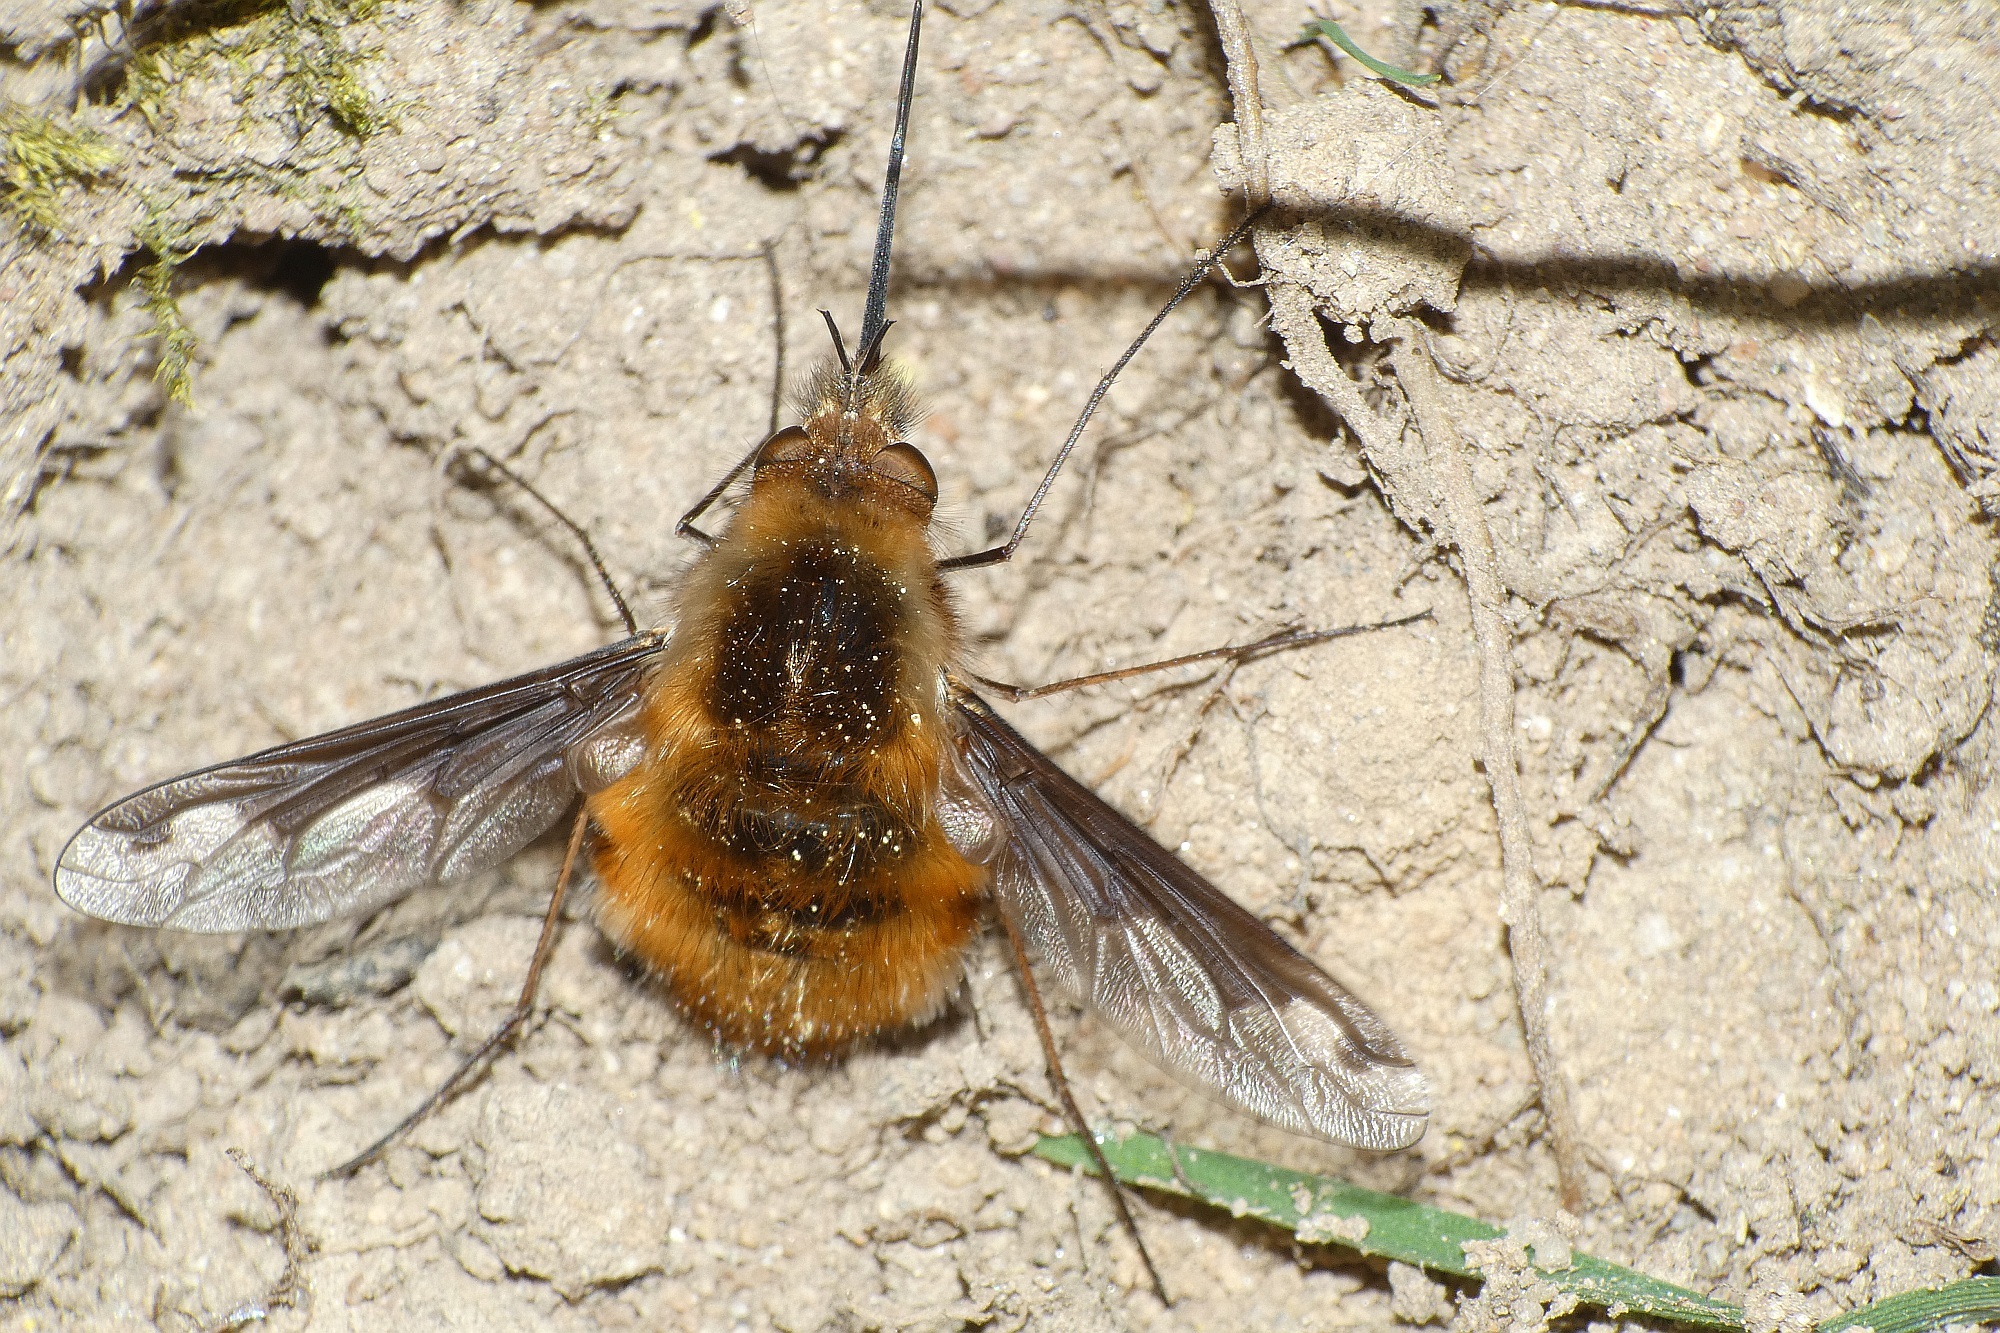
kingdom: Animalia
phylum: Arthropoda
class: Insecta
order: Diptera
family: Bombyliidae
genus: Bombylius
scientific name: Bombylius major
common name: Bee fly
